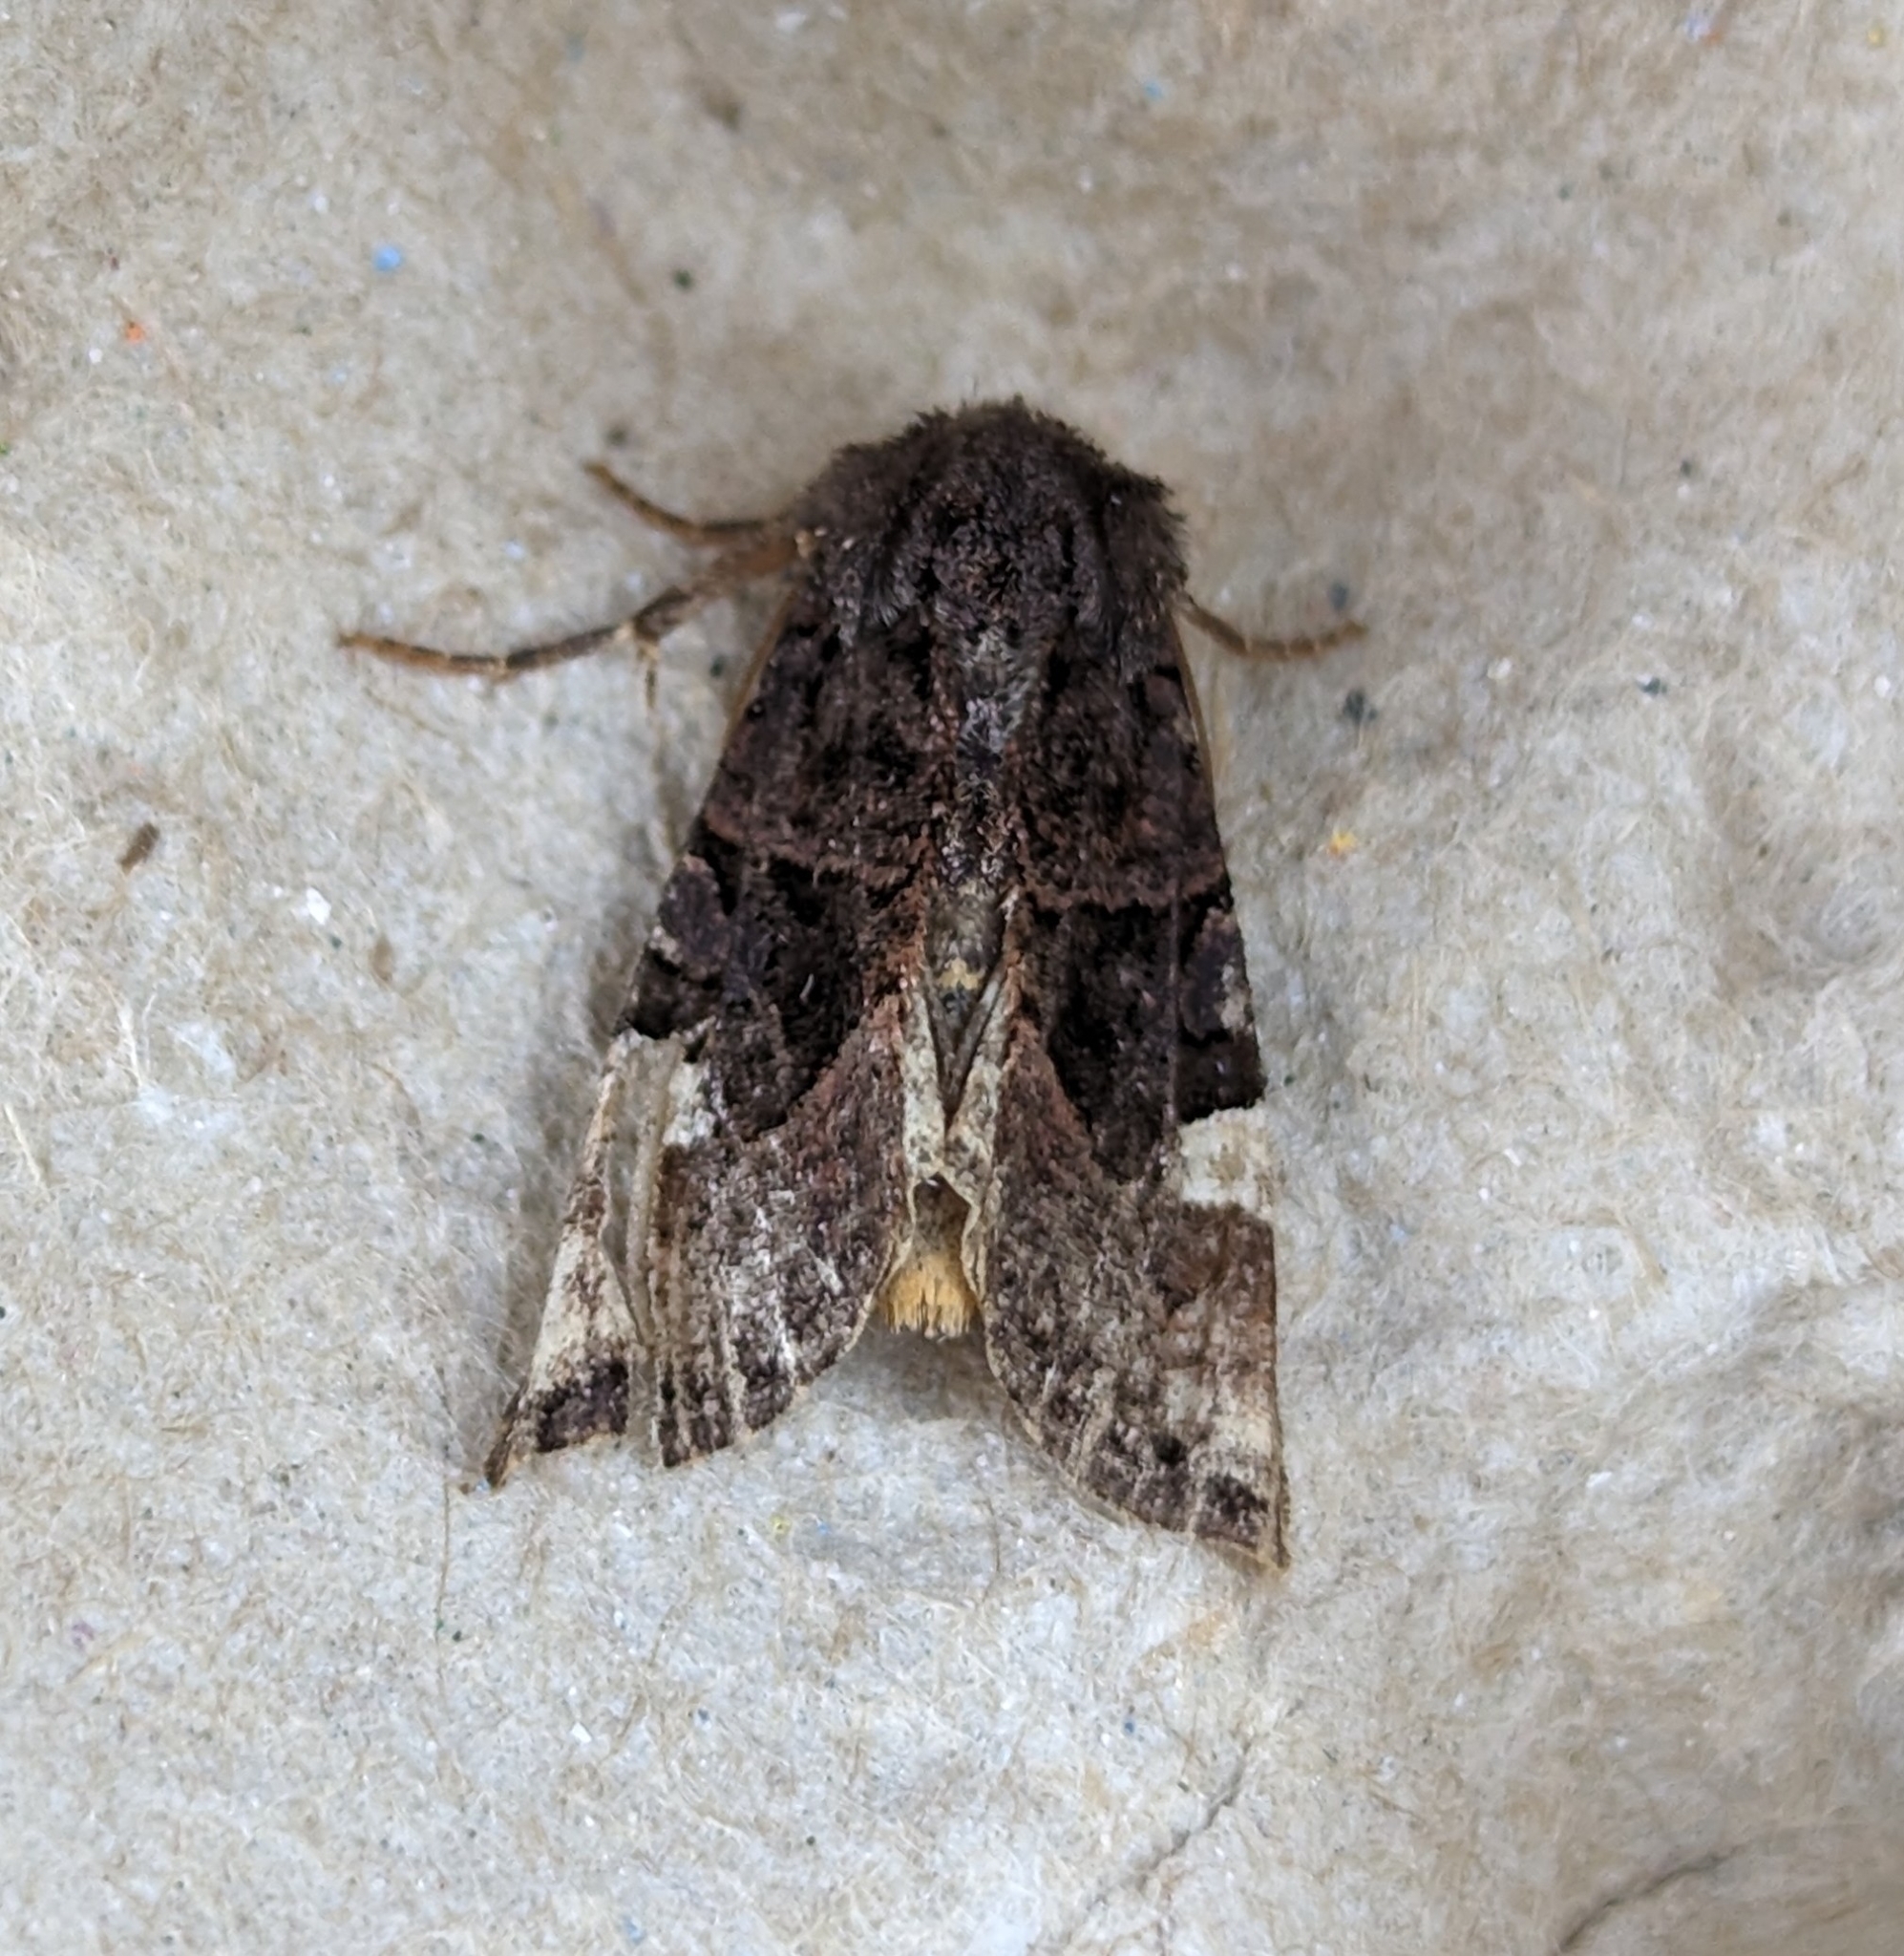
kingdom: Animalia
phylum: Arthropoda
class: Insecta
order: Lepidoptera
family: Noctuidae
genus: Euplexia
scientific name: Euplexia benesimilis
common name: American angle shades
